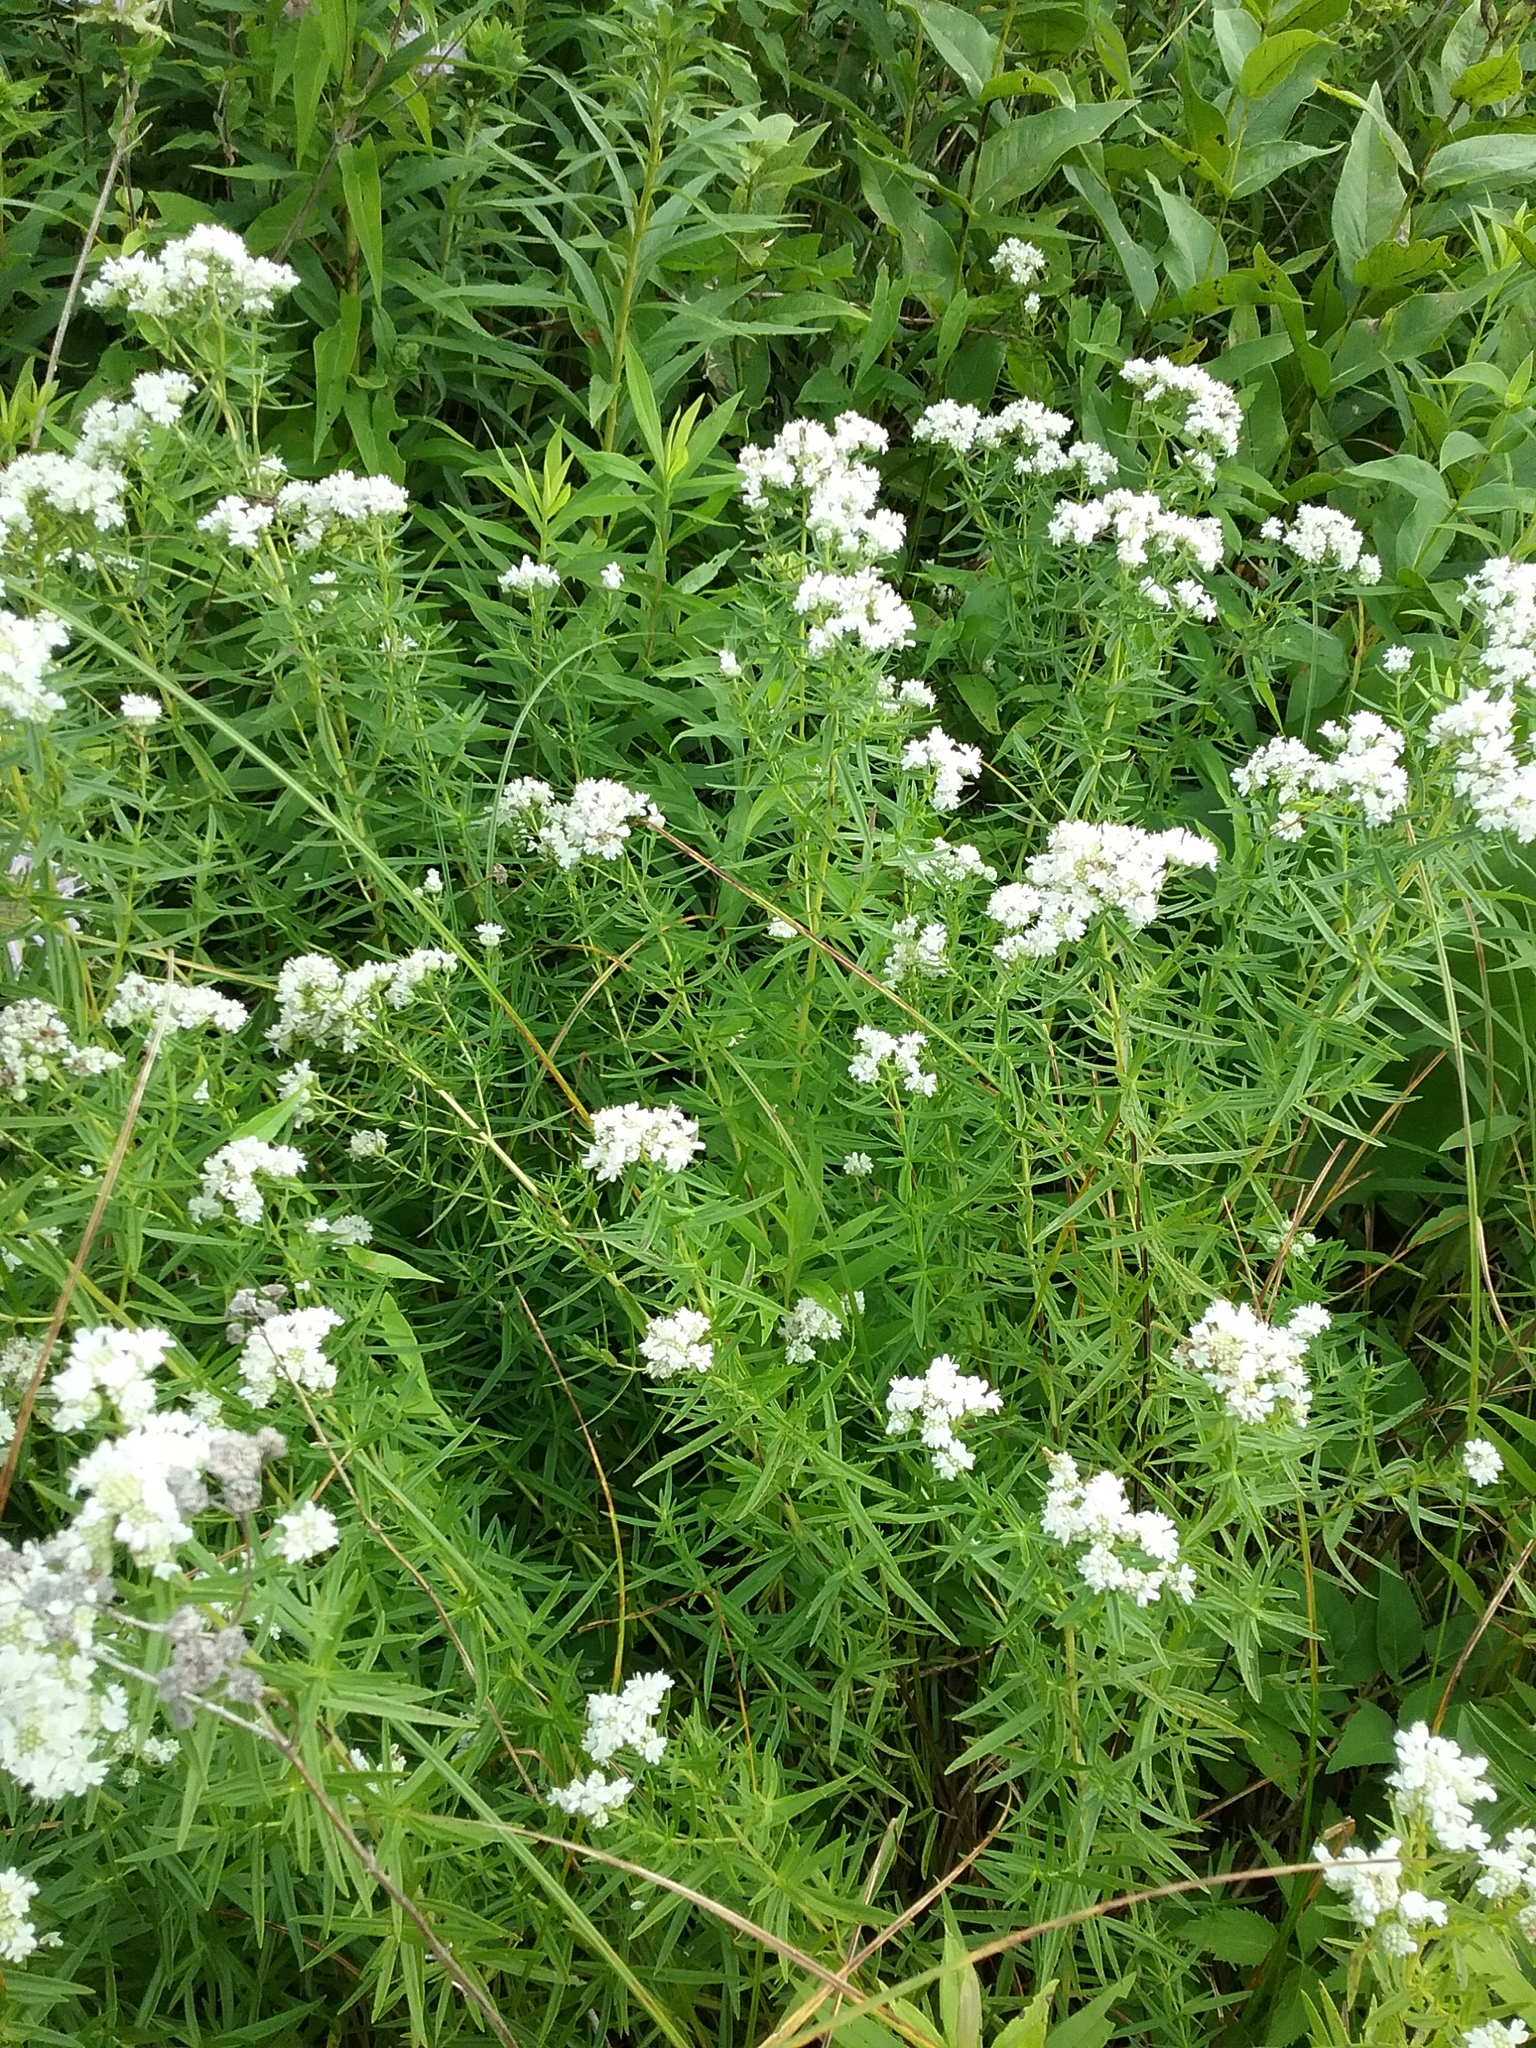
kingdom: Plantae
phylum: Tracheophyta
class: Magnoliopsida
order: Lamiales
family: Lamiaceae
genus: Pycnanthemum
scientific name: Pycnanthemum virginianum
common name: Virginia mountain-mint
